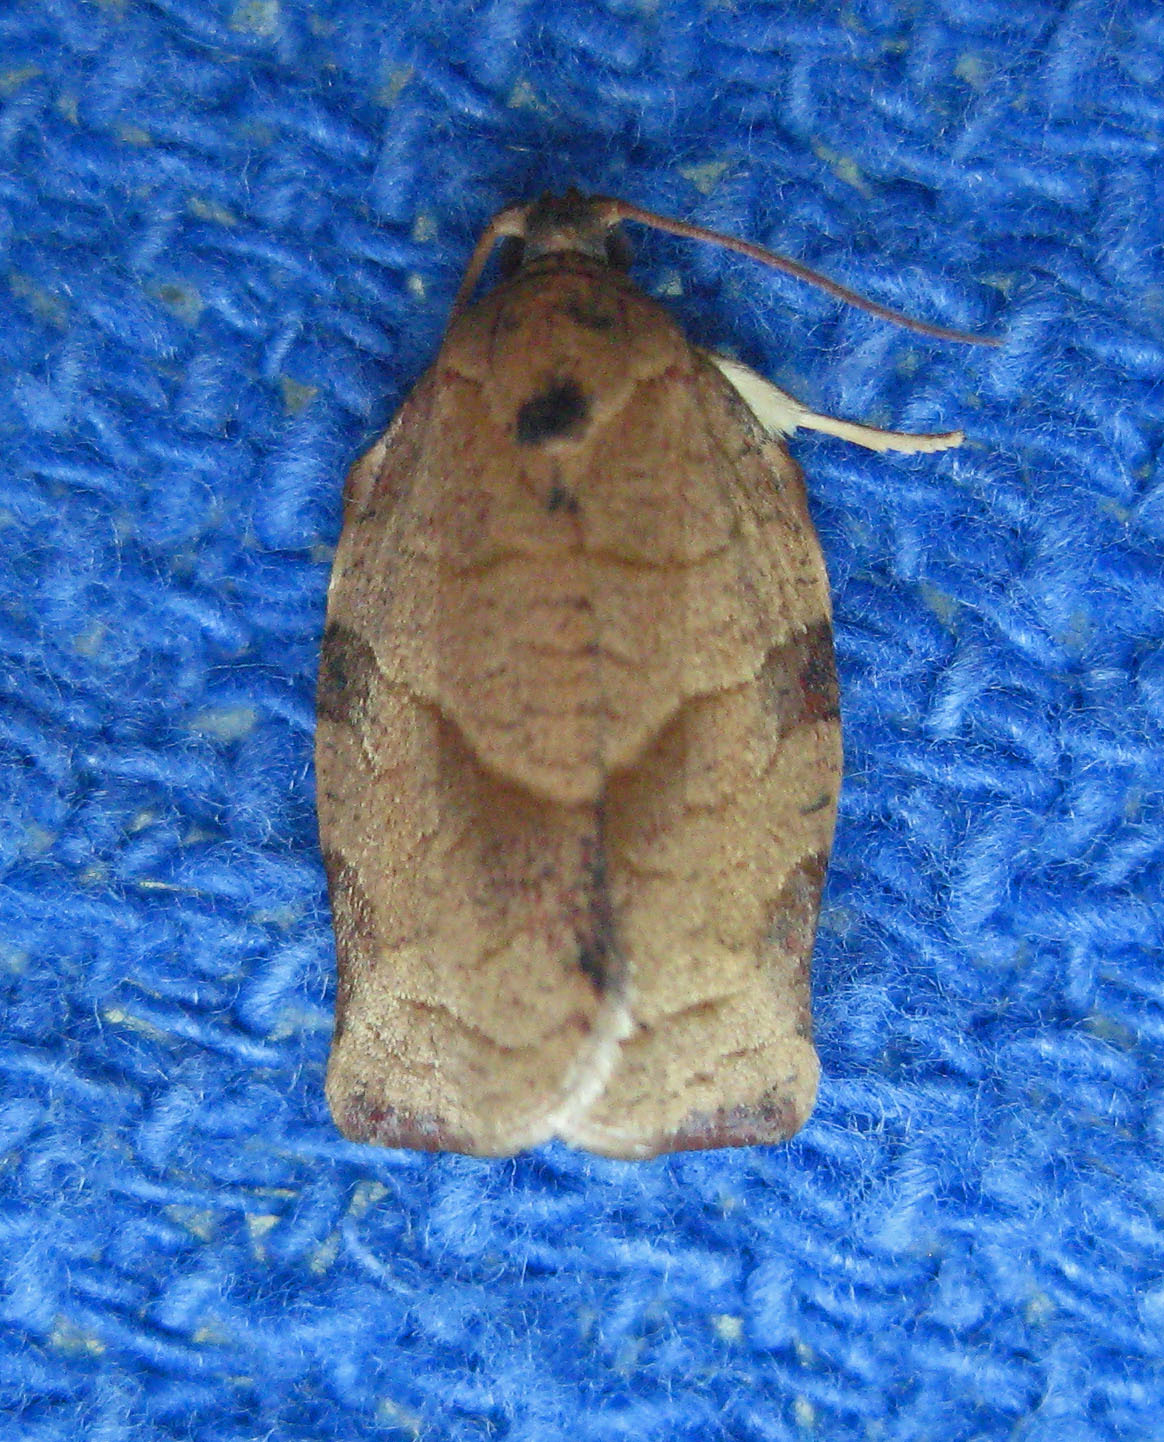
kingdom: Animalia
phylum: Arthropoda
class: Insecta
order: Lepidoptera
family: Tortricidae
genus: Choristoneura
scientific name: Choristoneura rosaceana
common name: Oblique-banded leafroller moth
